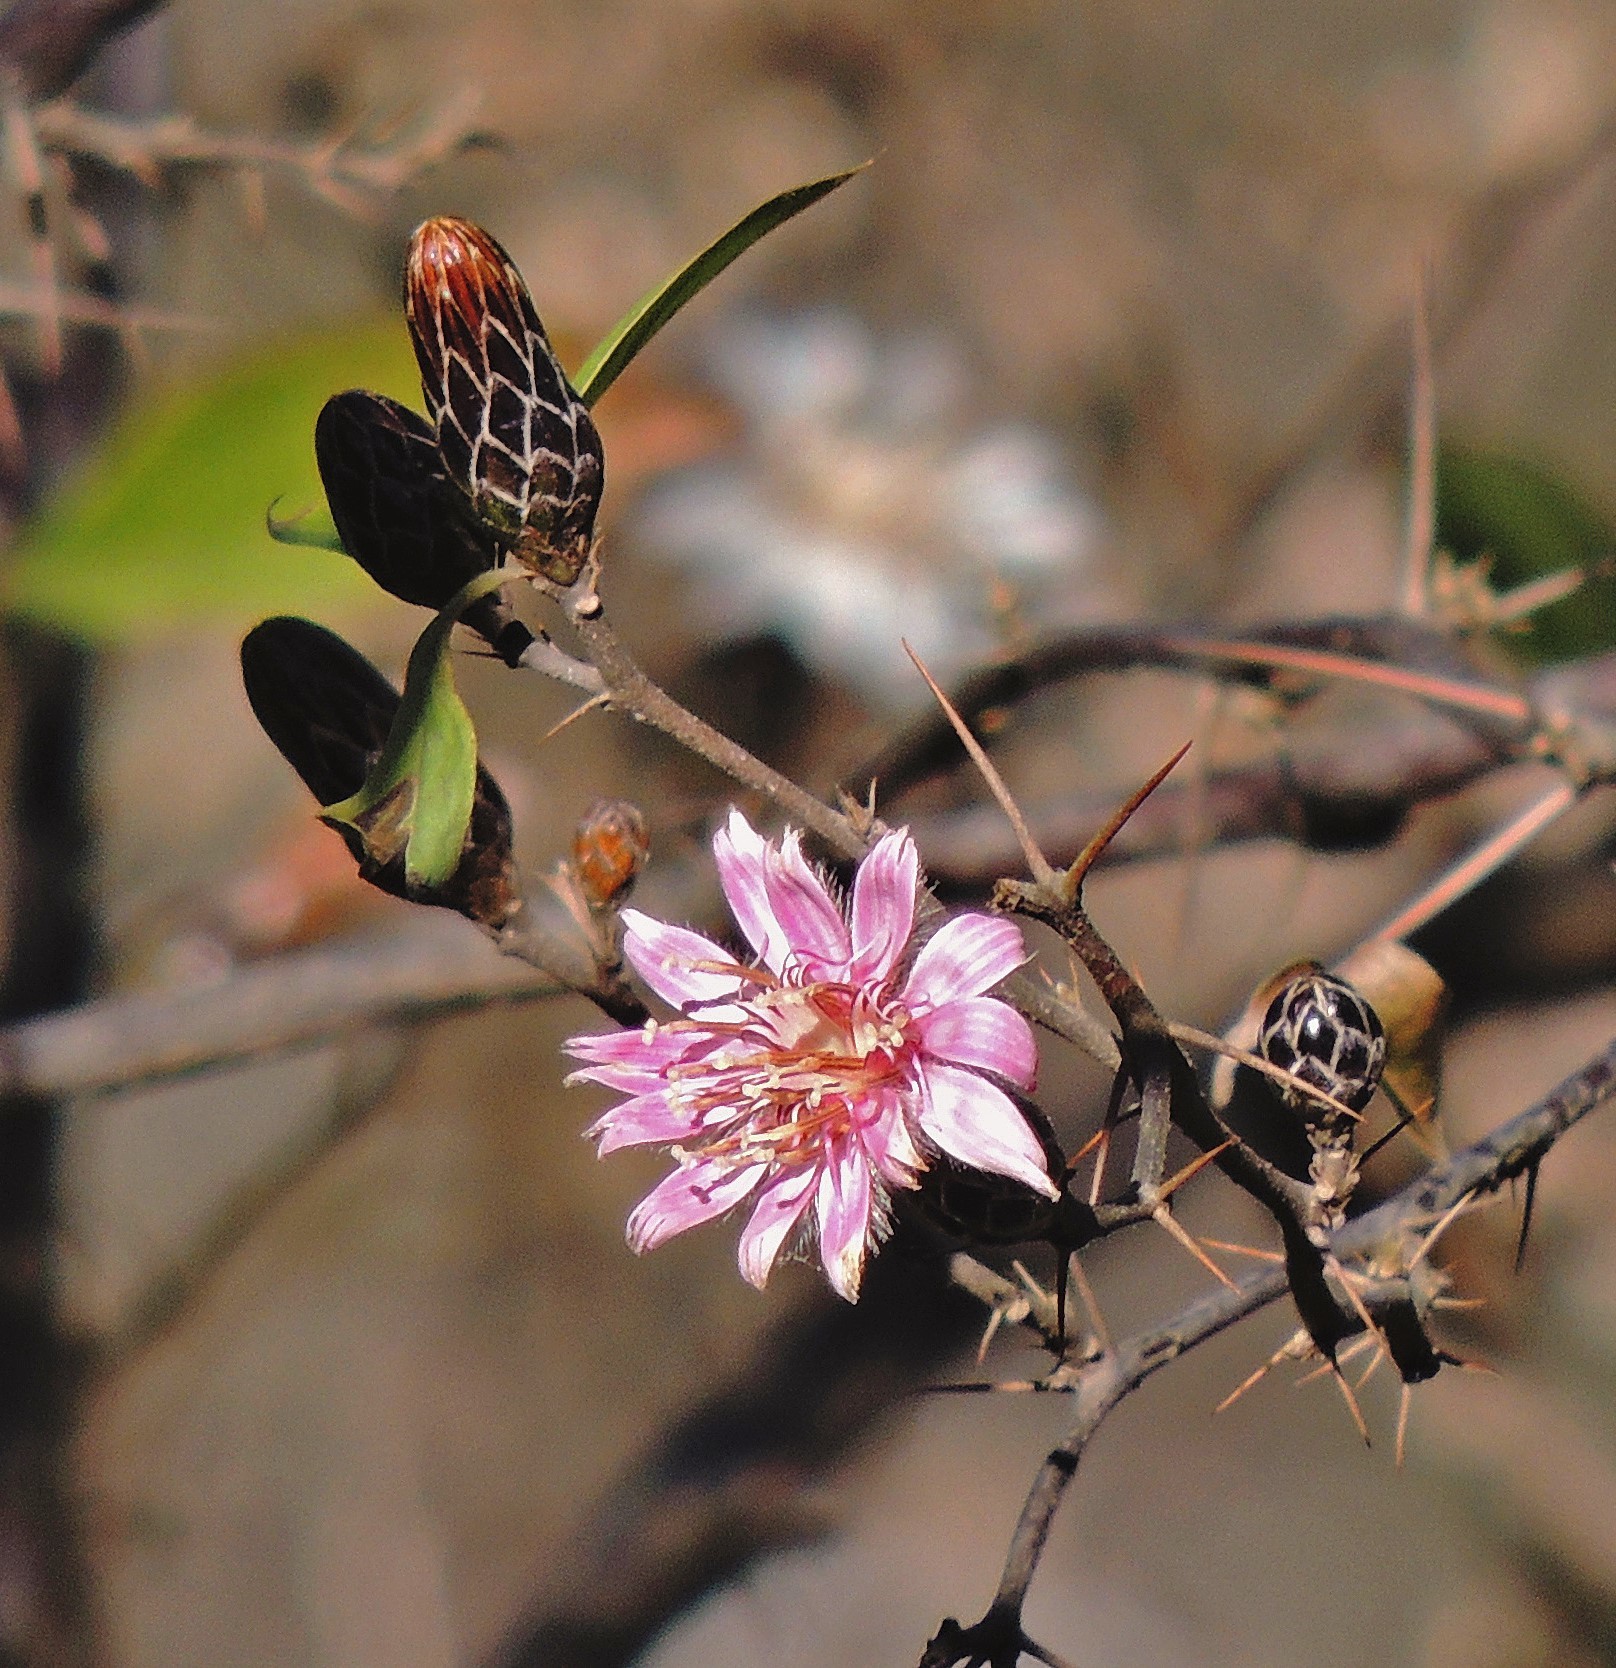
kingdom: Plantae
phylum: Tracheophyta
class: Magnoliopsida
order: Asterales
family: Asteraceae
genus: Barnadesia
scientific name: Barnadesia odorata
